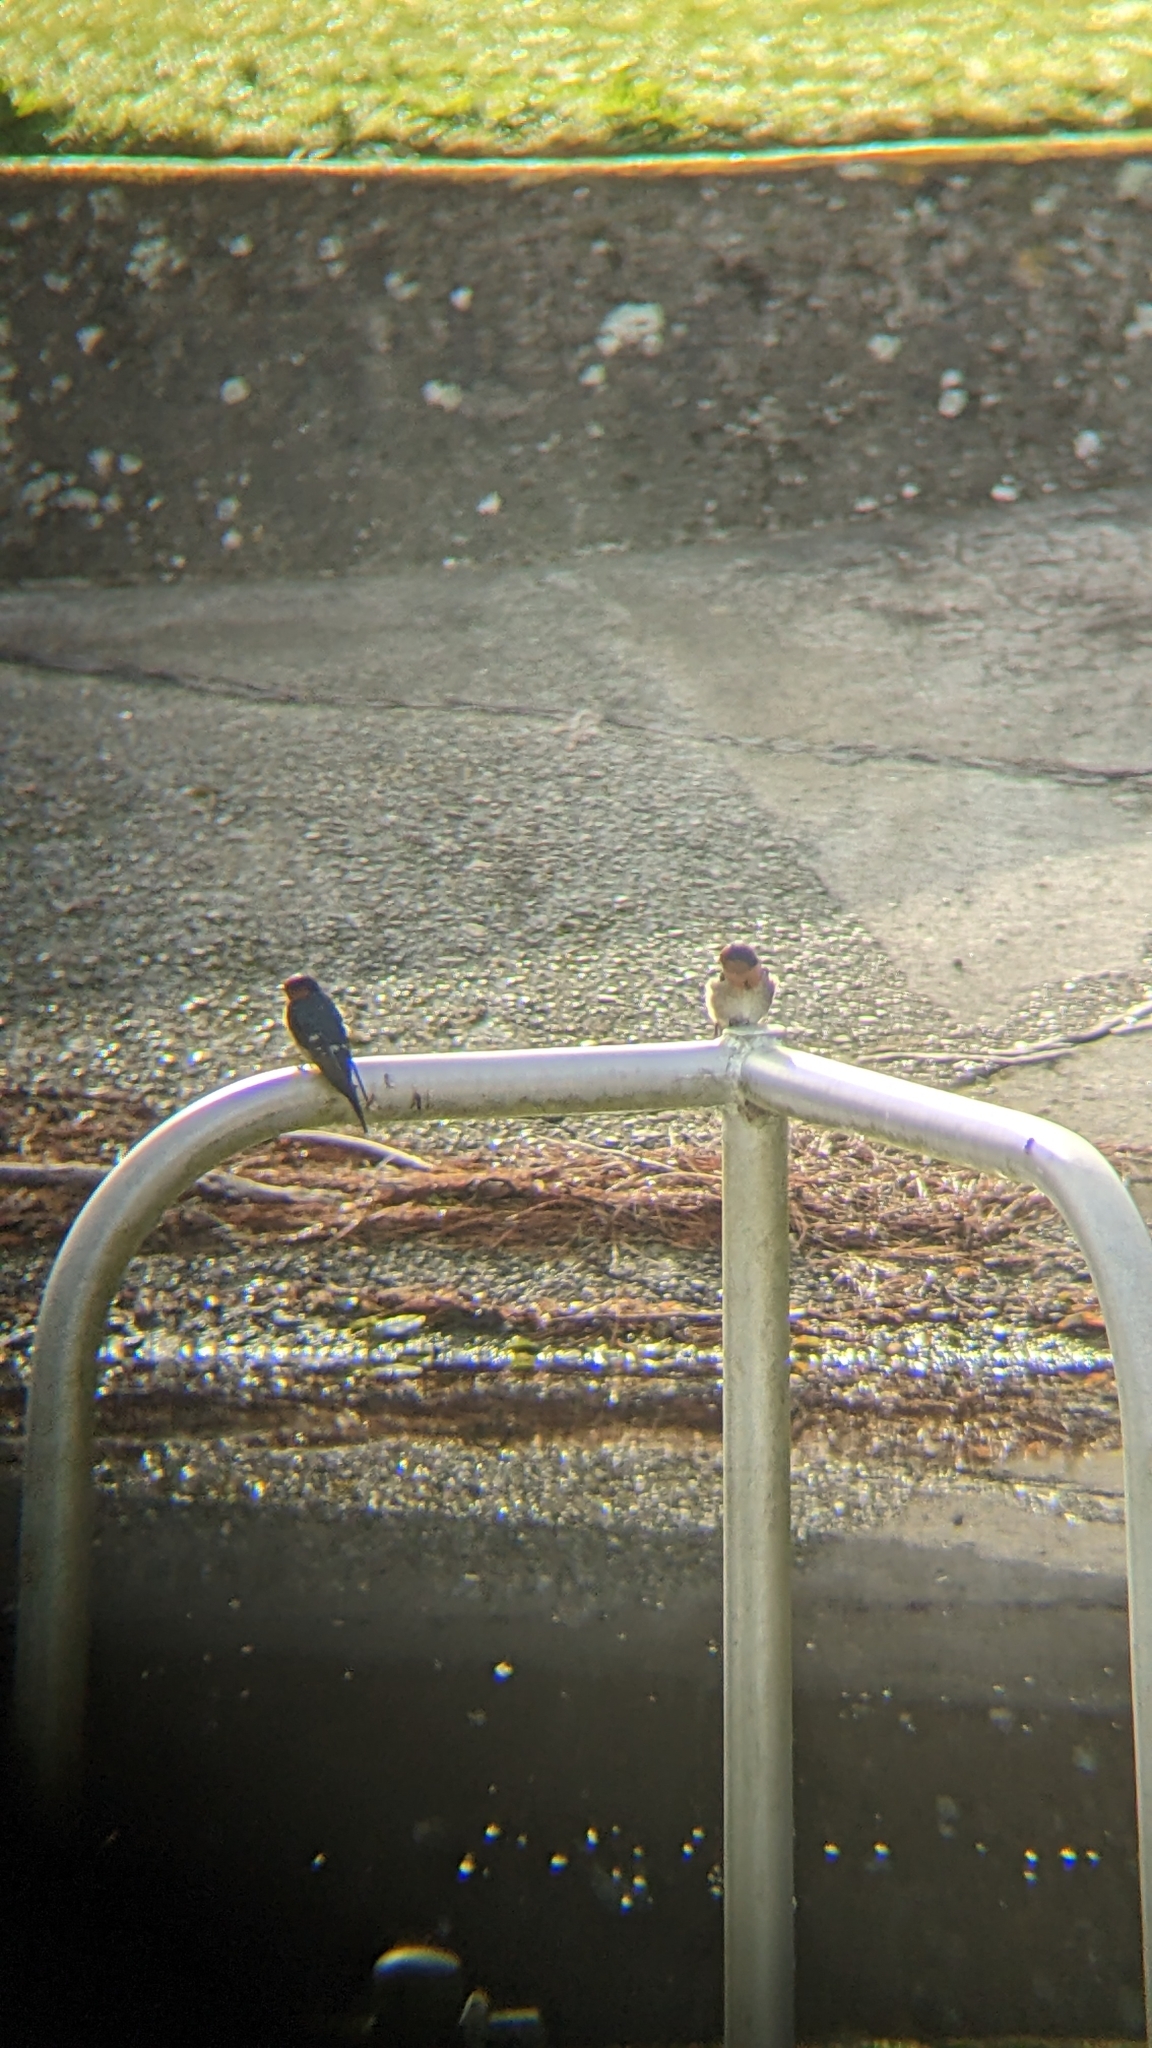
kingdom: Animalia
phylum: Chordata
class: Aves
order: Passeriformes
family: Hirundinidae
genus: Hirundo
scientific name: Hirundo neoxena
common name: Welcome swallow
